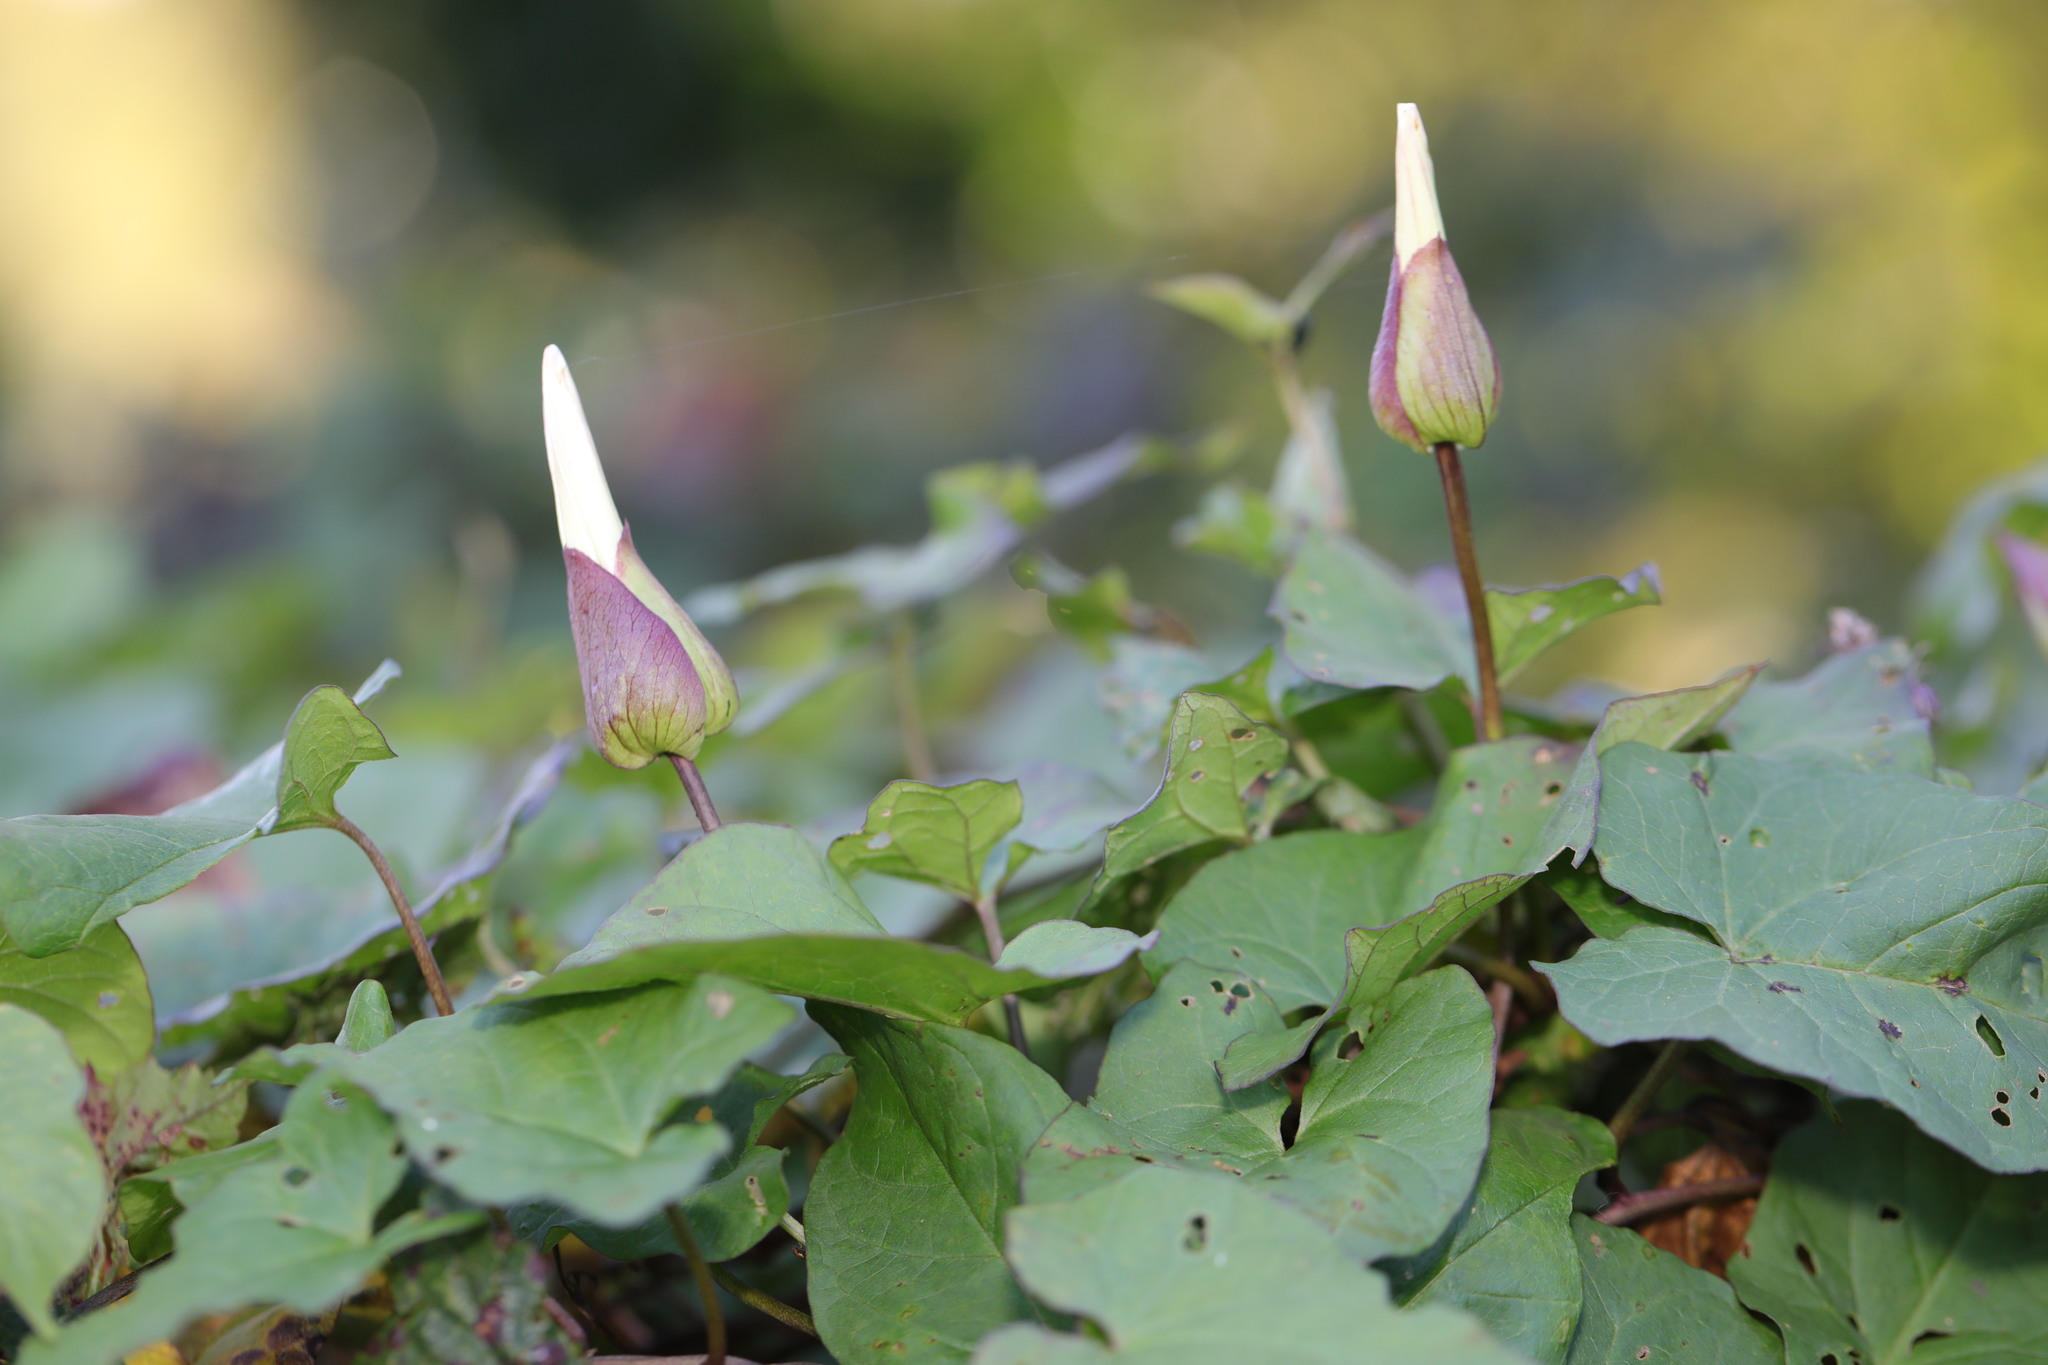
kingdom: Plantae
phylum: Tracheophyta
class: Magnoliopsida
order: Solanales
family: Convolvulaceae
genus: Calystegia
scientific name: Calystegia silvatica
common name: Large bindweed
